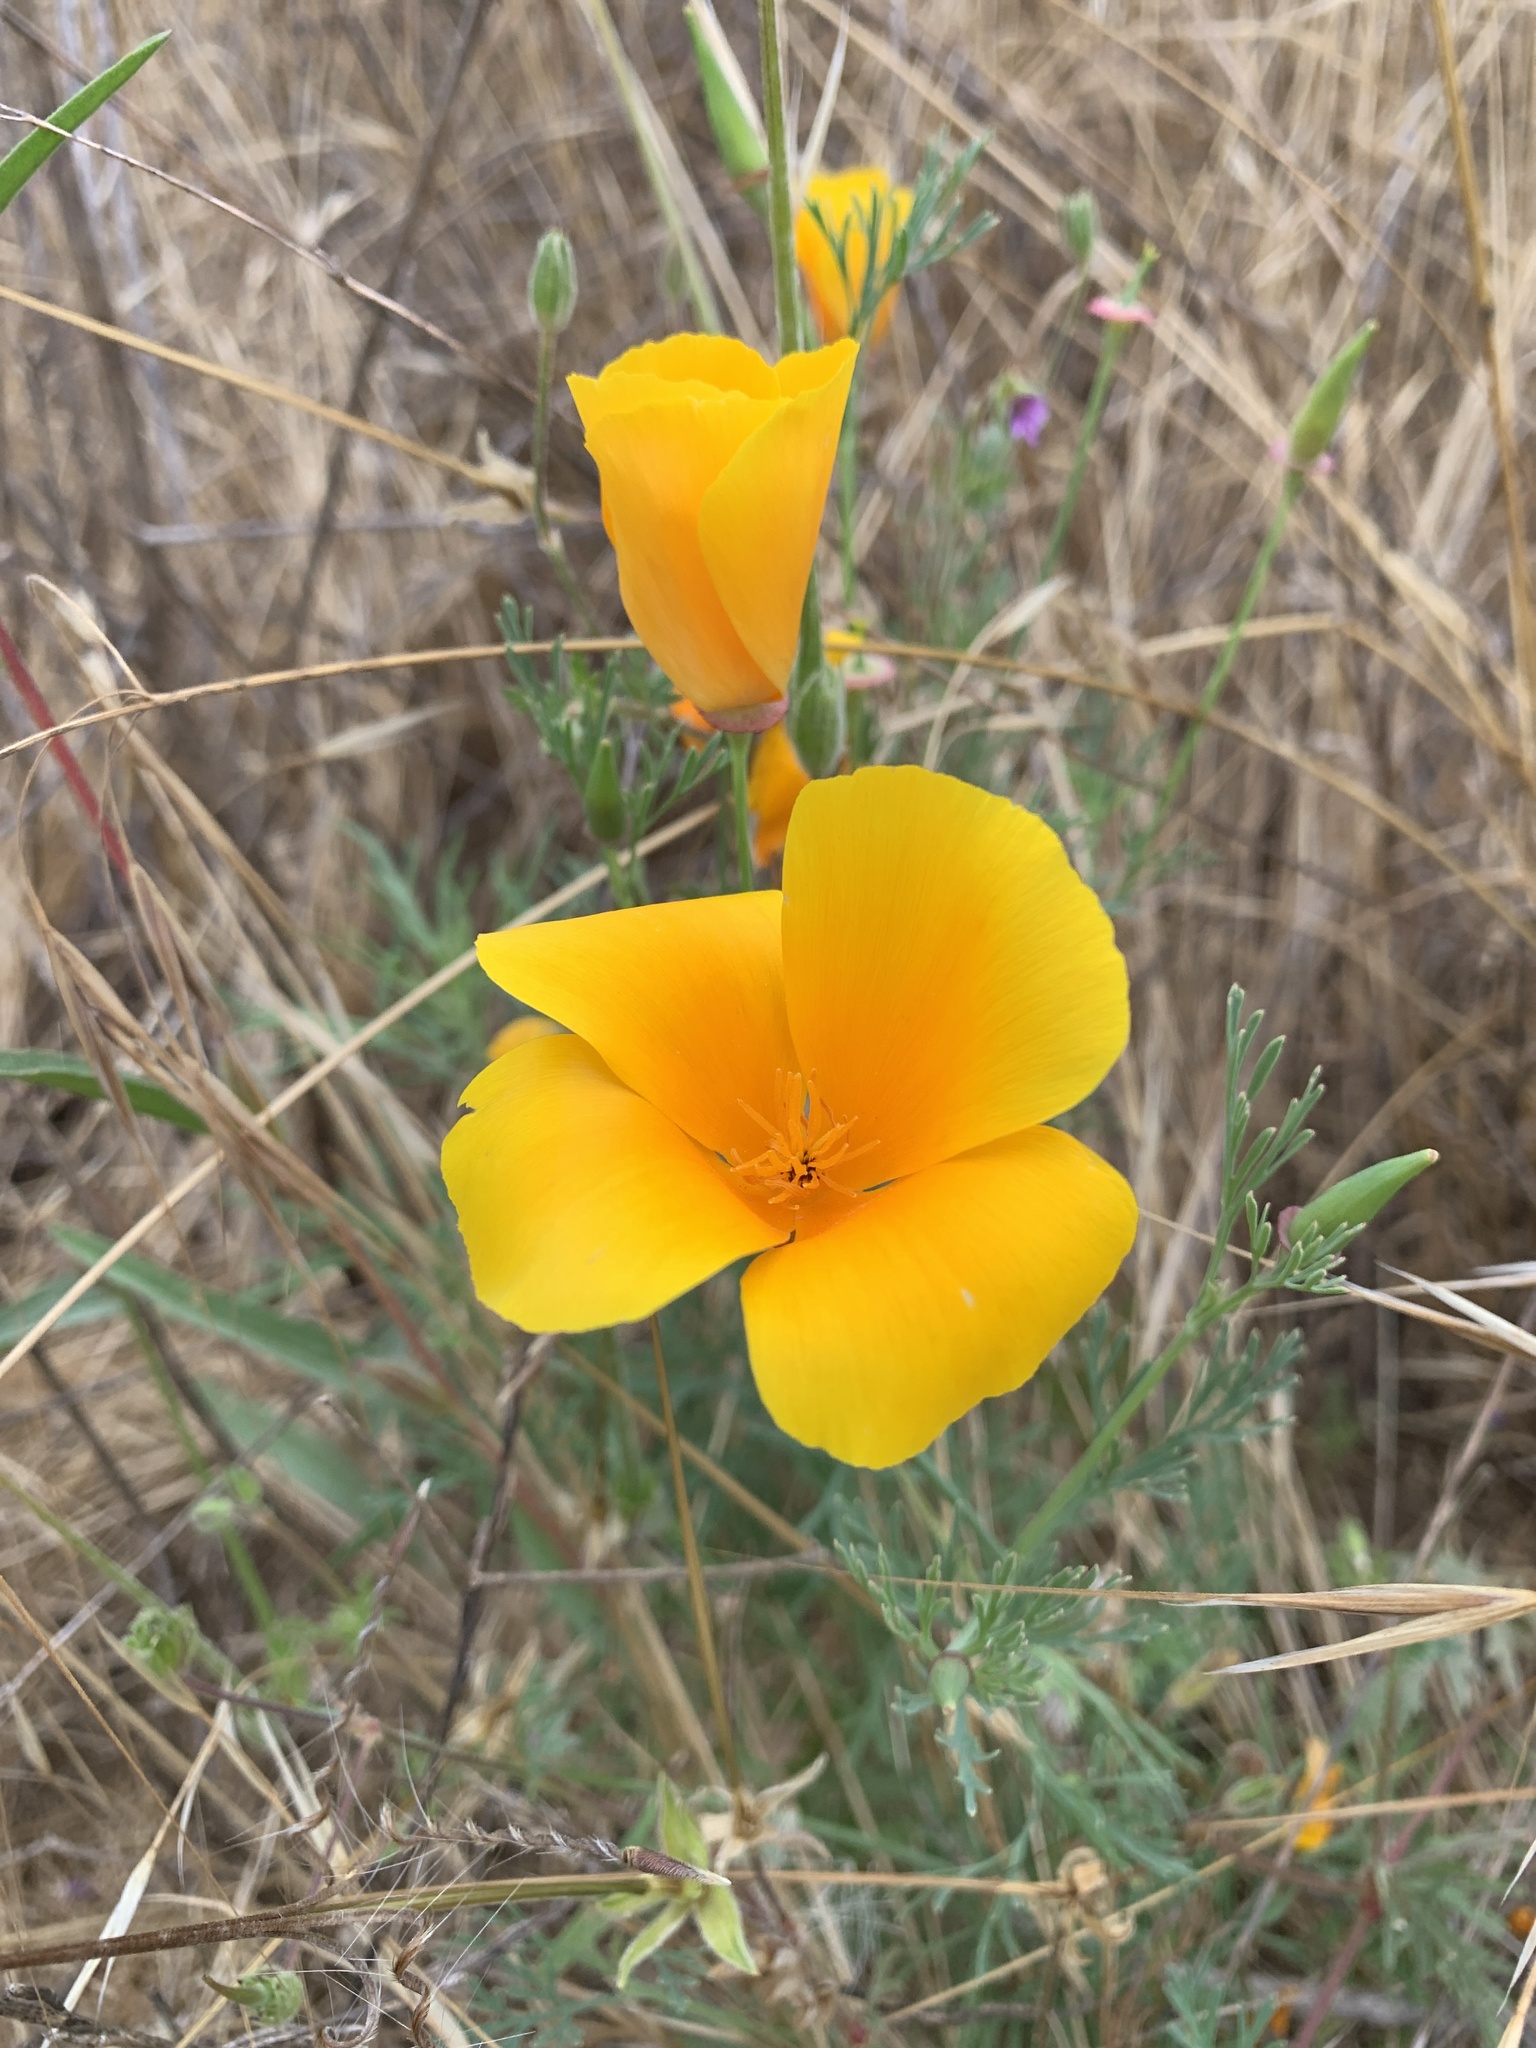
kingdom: Plantae
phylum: Tracheophyta
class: Magnoliopsida
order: Ranunculales
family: Papaveraceae
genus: Eschscholzia
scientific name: Eschscholzia californica
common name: California poppy
